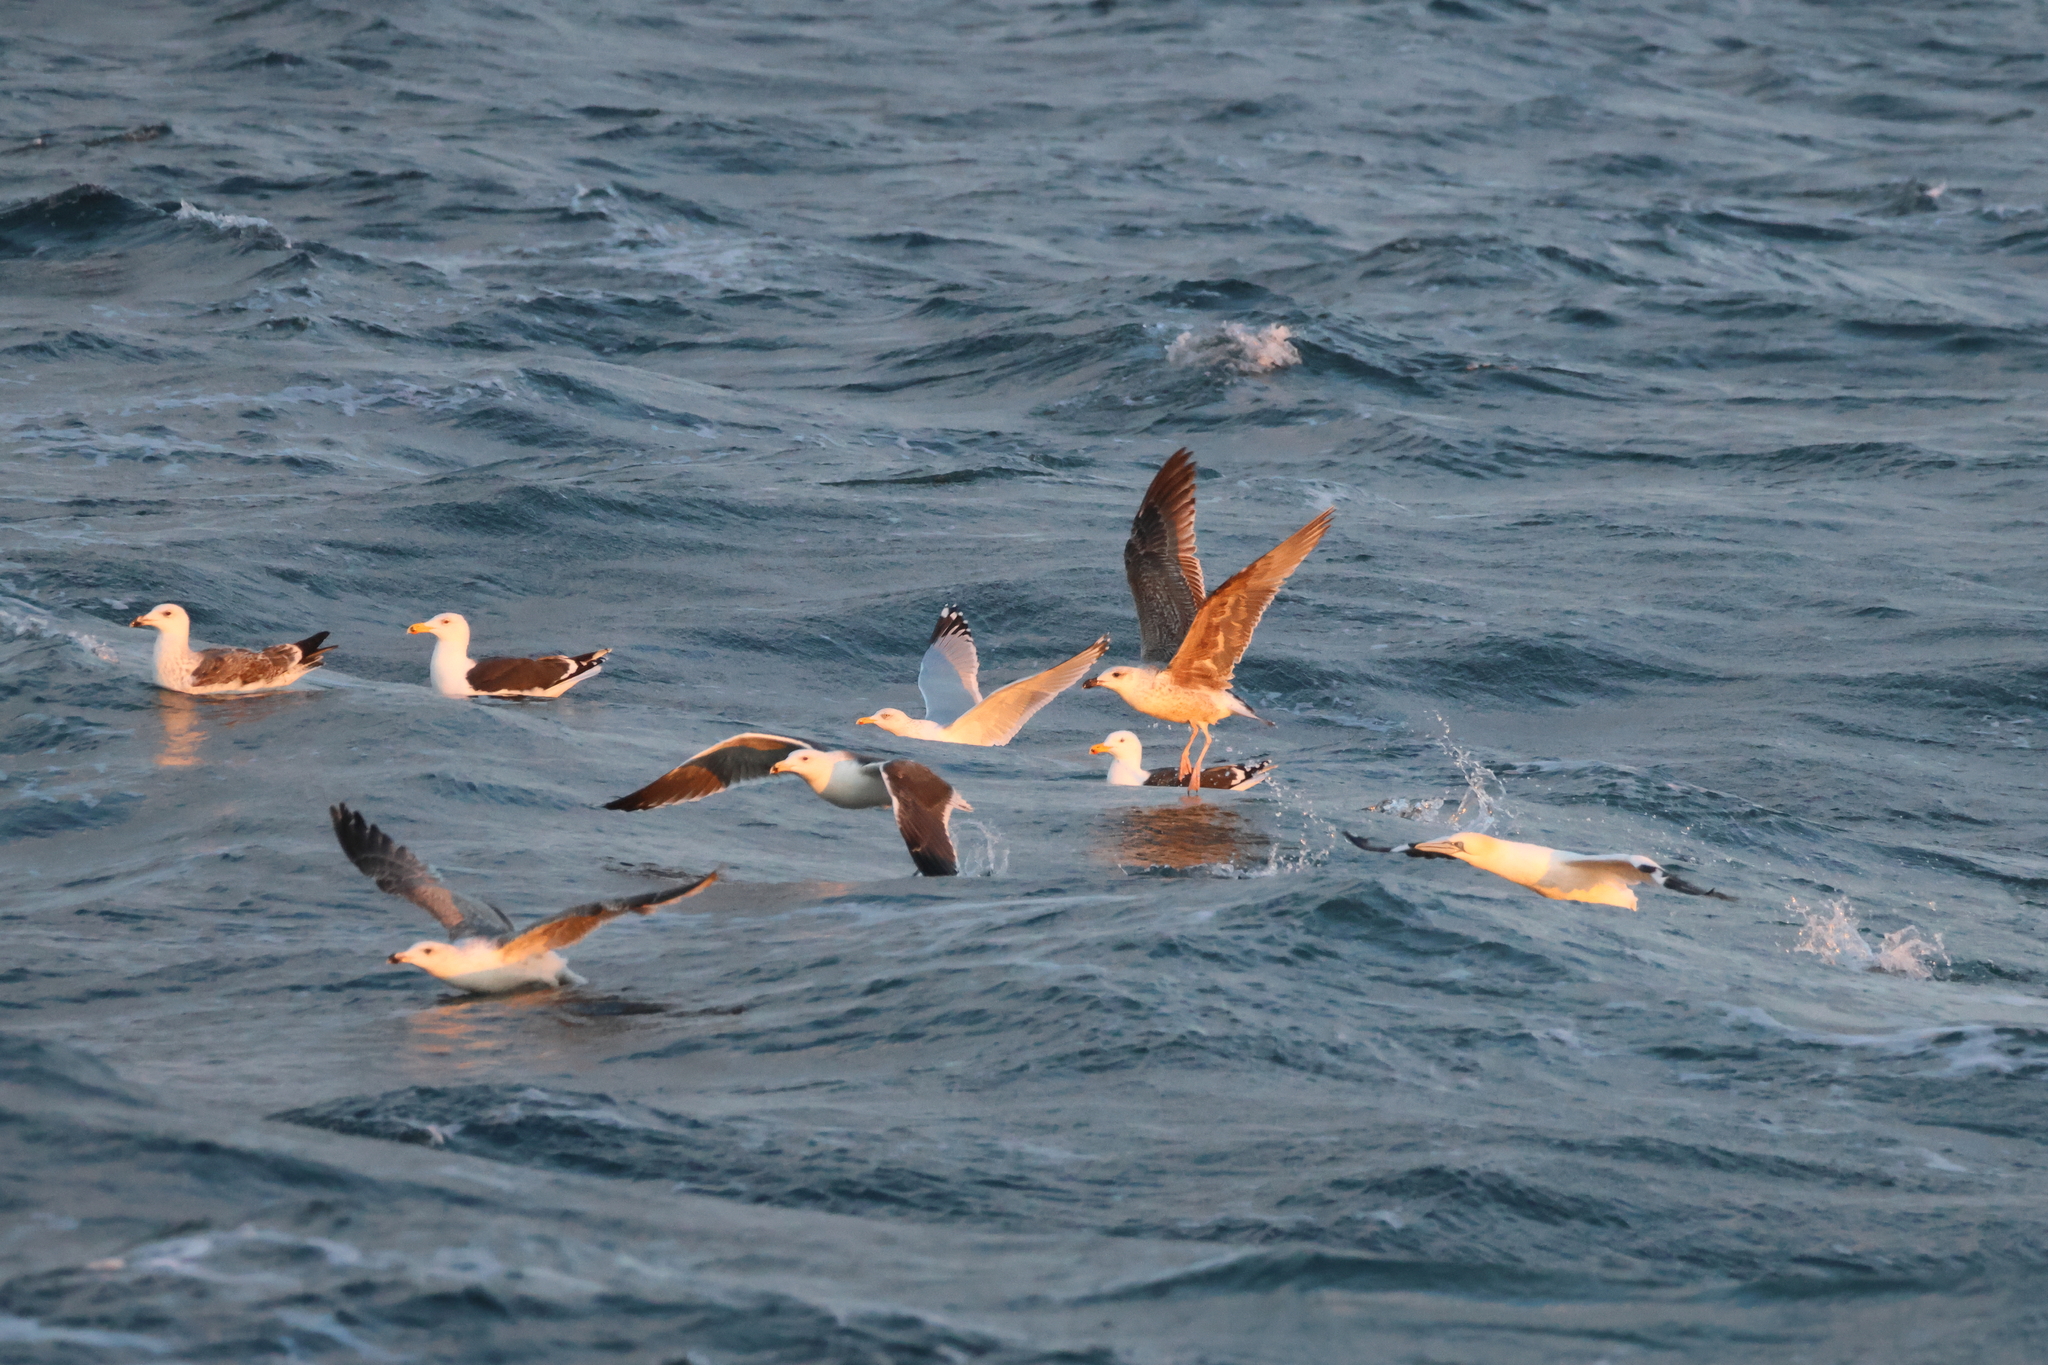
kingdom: Animalia
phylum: Chordata
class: Aves
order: Charadriiformes
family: Laridae
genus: Larus
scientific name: Larus marinus
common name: Great black-backed gull
